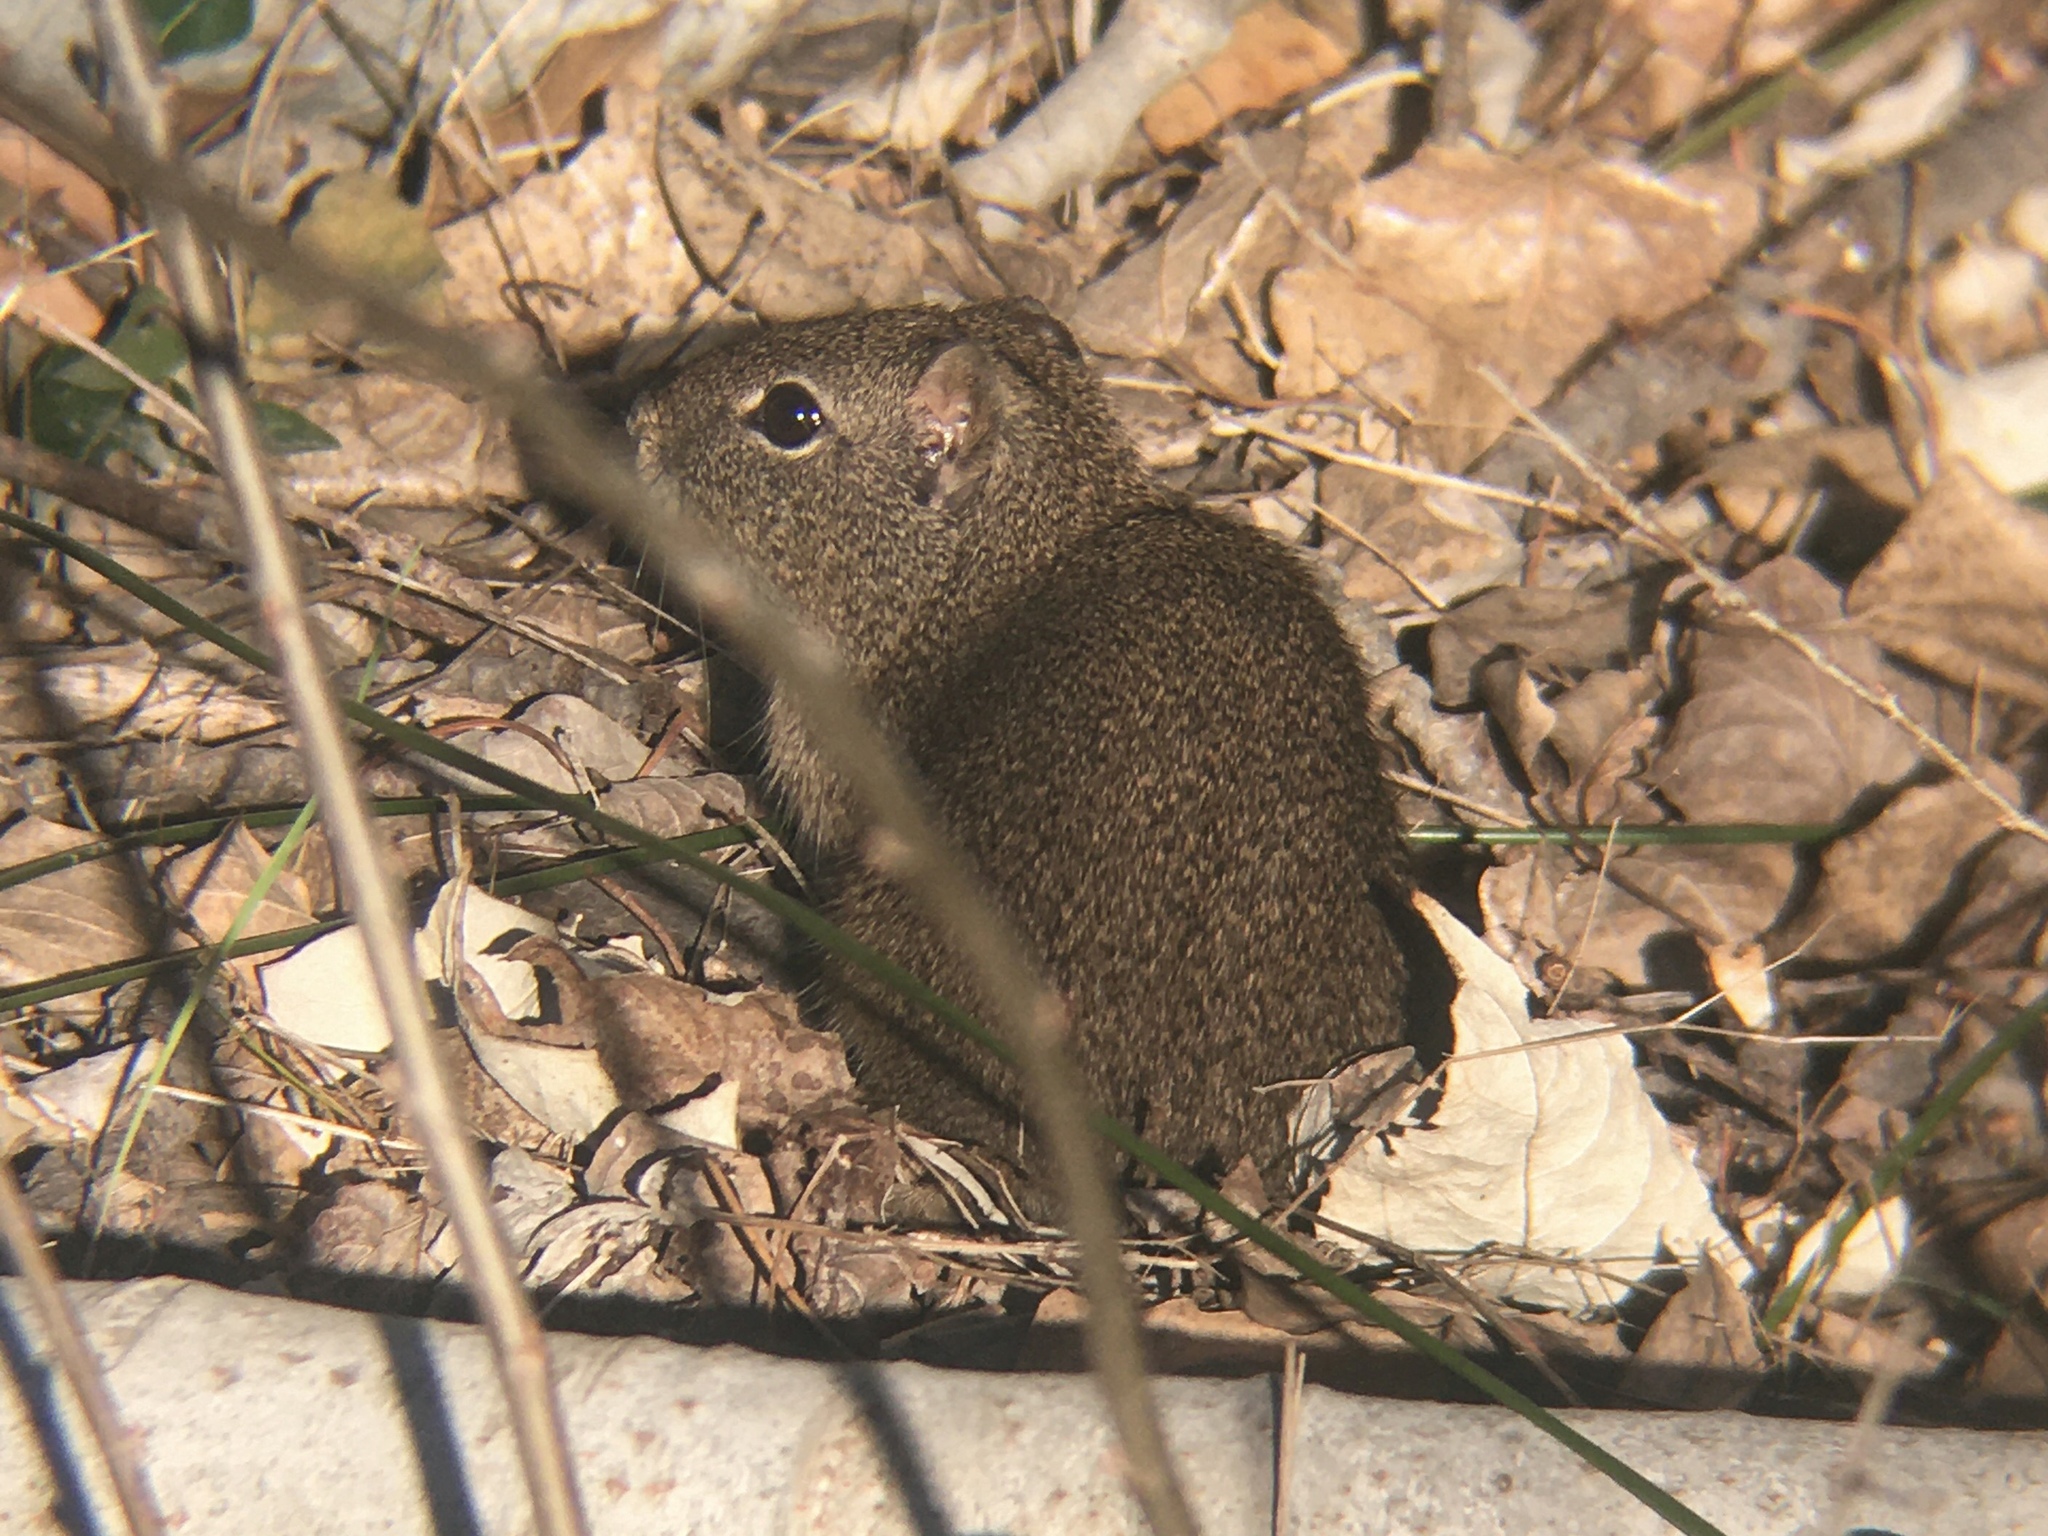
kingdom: Animalia
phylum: Chordata
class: Mammalia
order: Rodentia
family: Caviidae
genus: Microcavia
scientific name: Microcavia australis
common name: Southern mountain cavy
